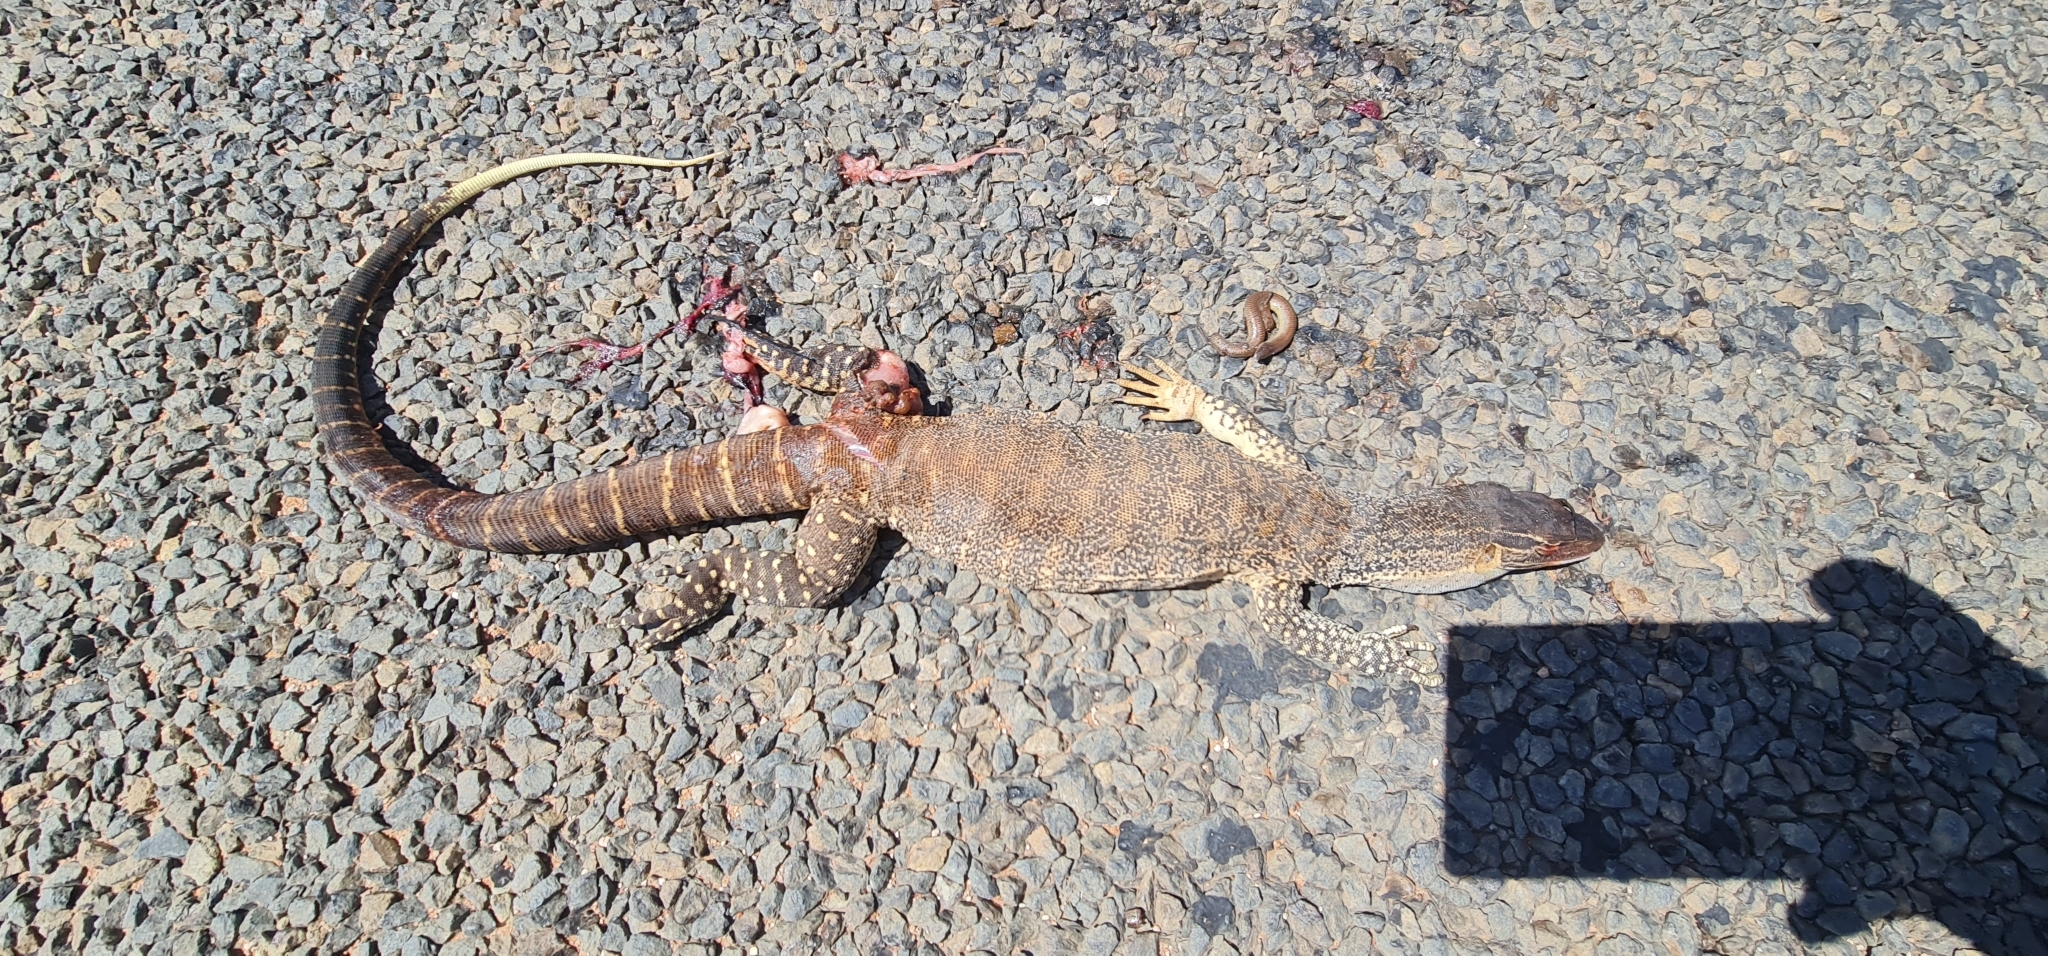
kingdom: Animalia
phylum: Chordata
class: Squamata
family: Varanidae
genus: Varanus
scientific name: Varanus gouldii
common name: Gould's goanna
